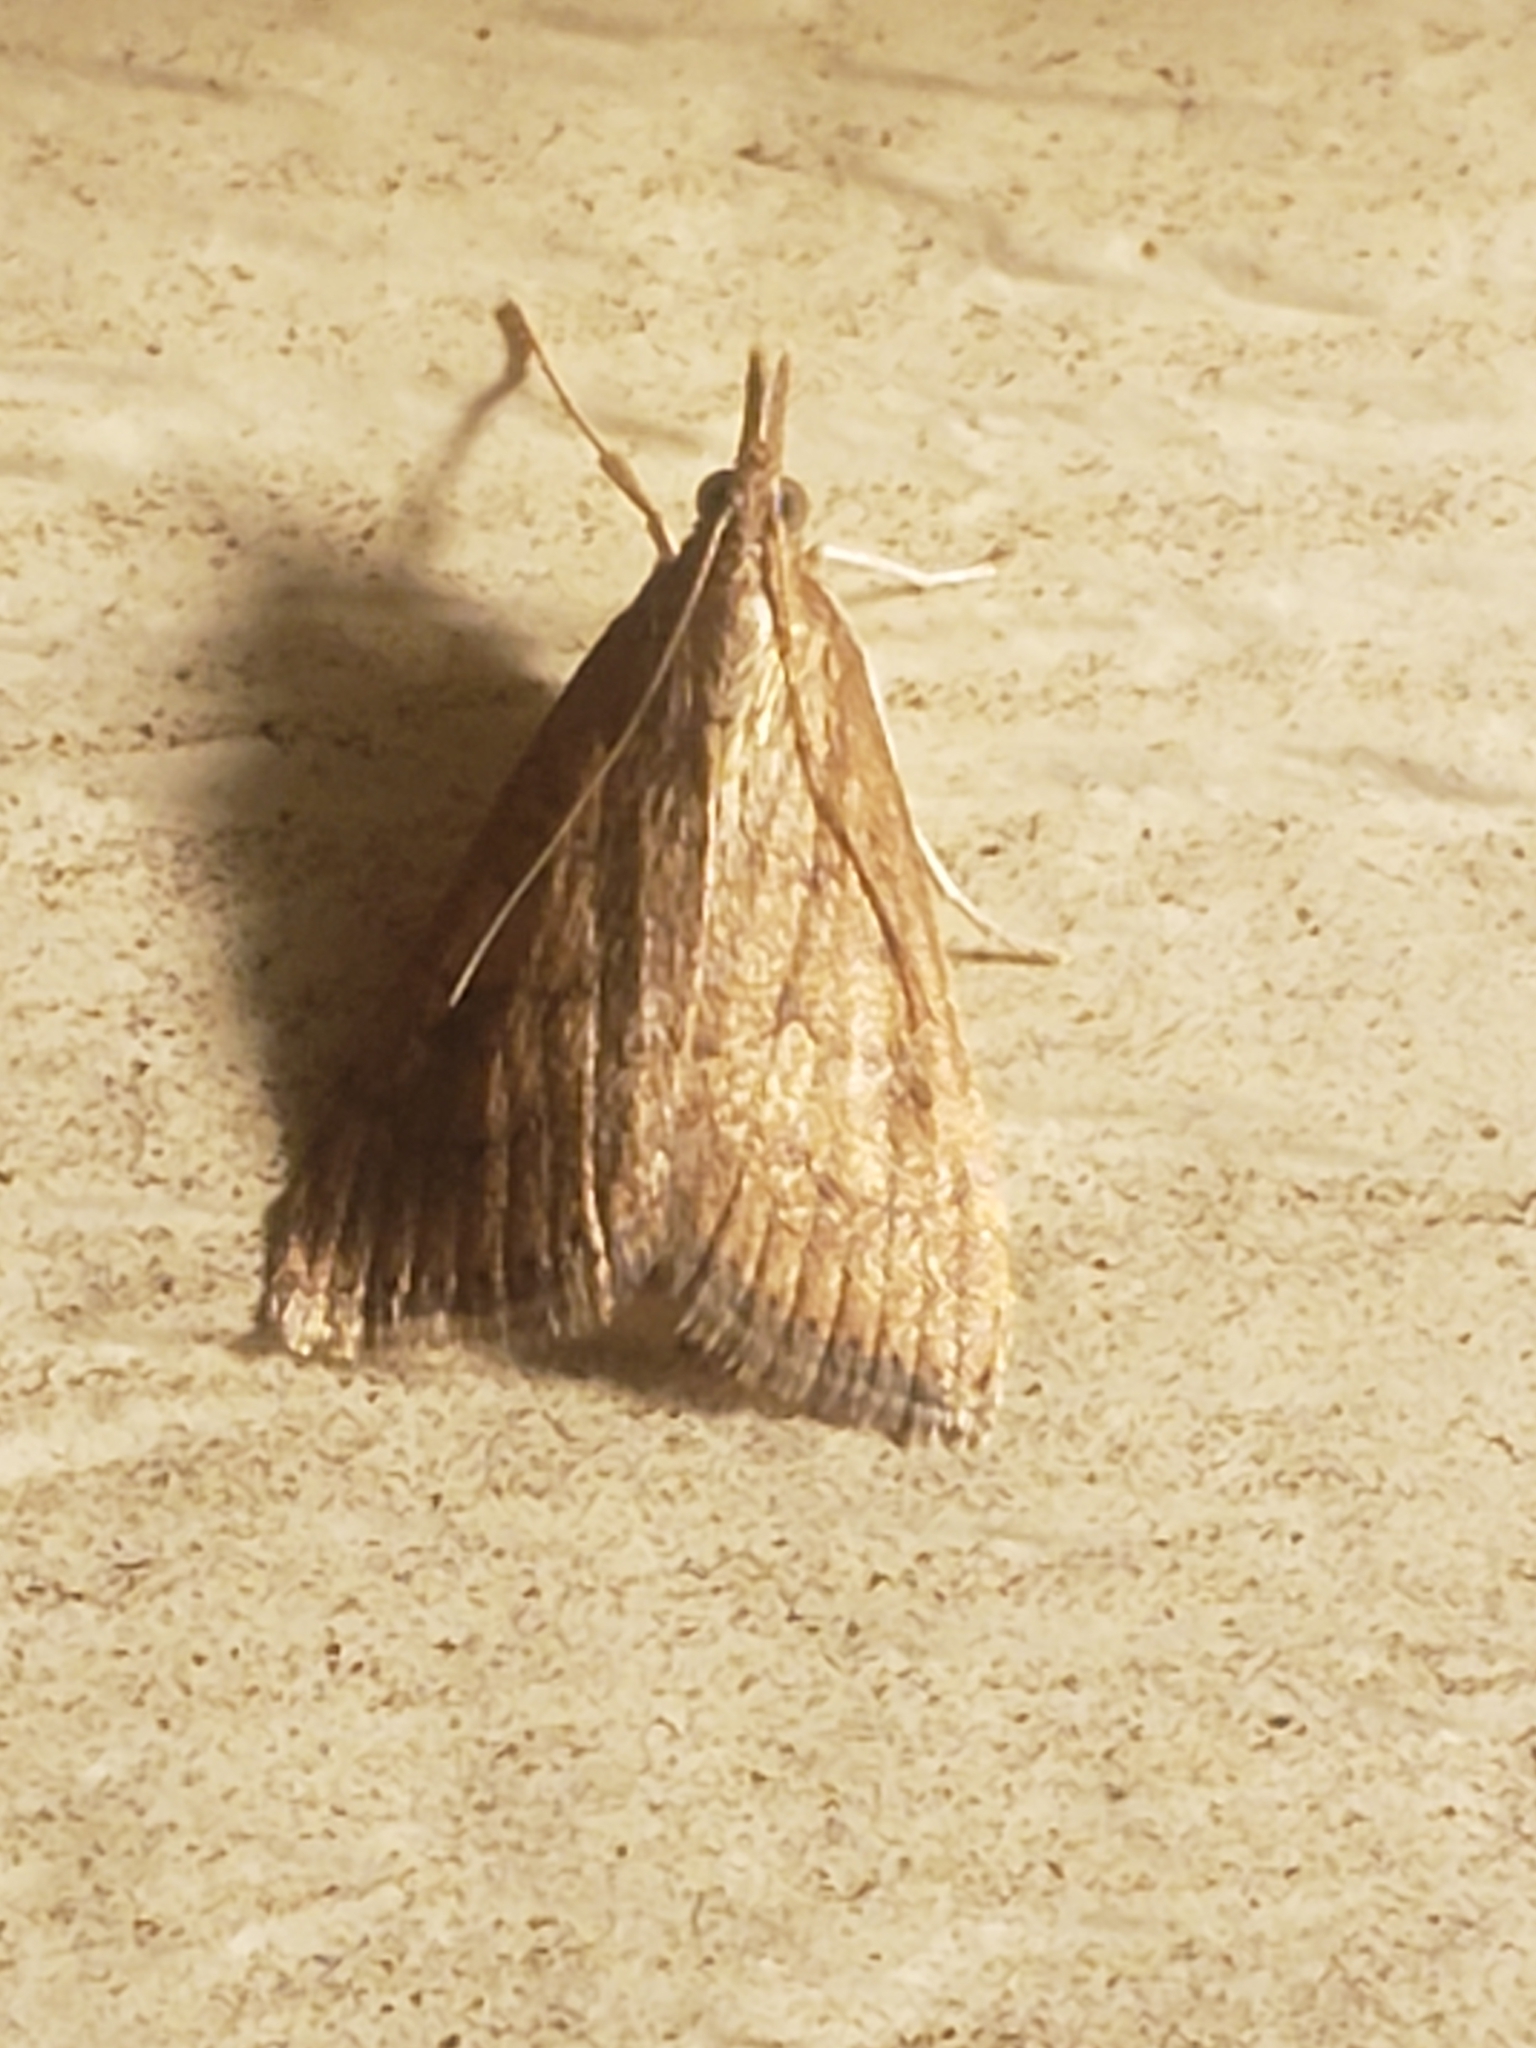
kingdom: Animalia
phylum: Arthropoda
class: Insecta
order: Lepidoptera
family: Crambidae
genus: Udea
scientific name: Udea rubigalis
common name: Celery leaftier moth
